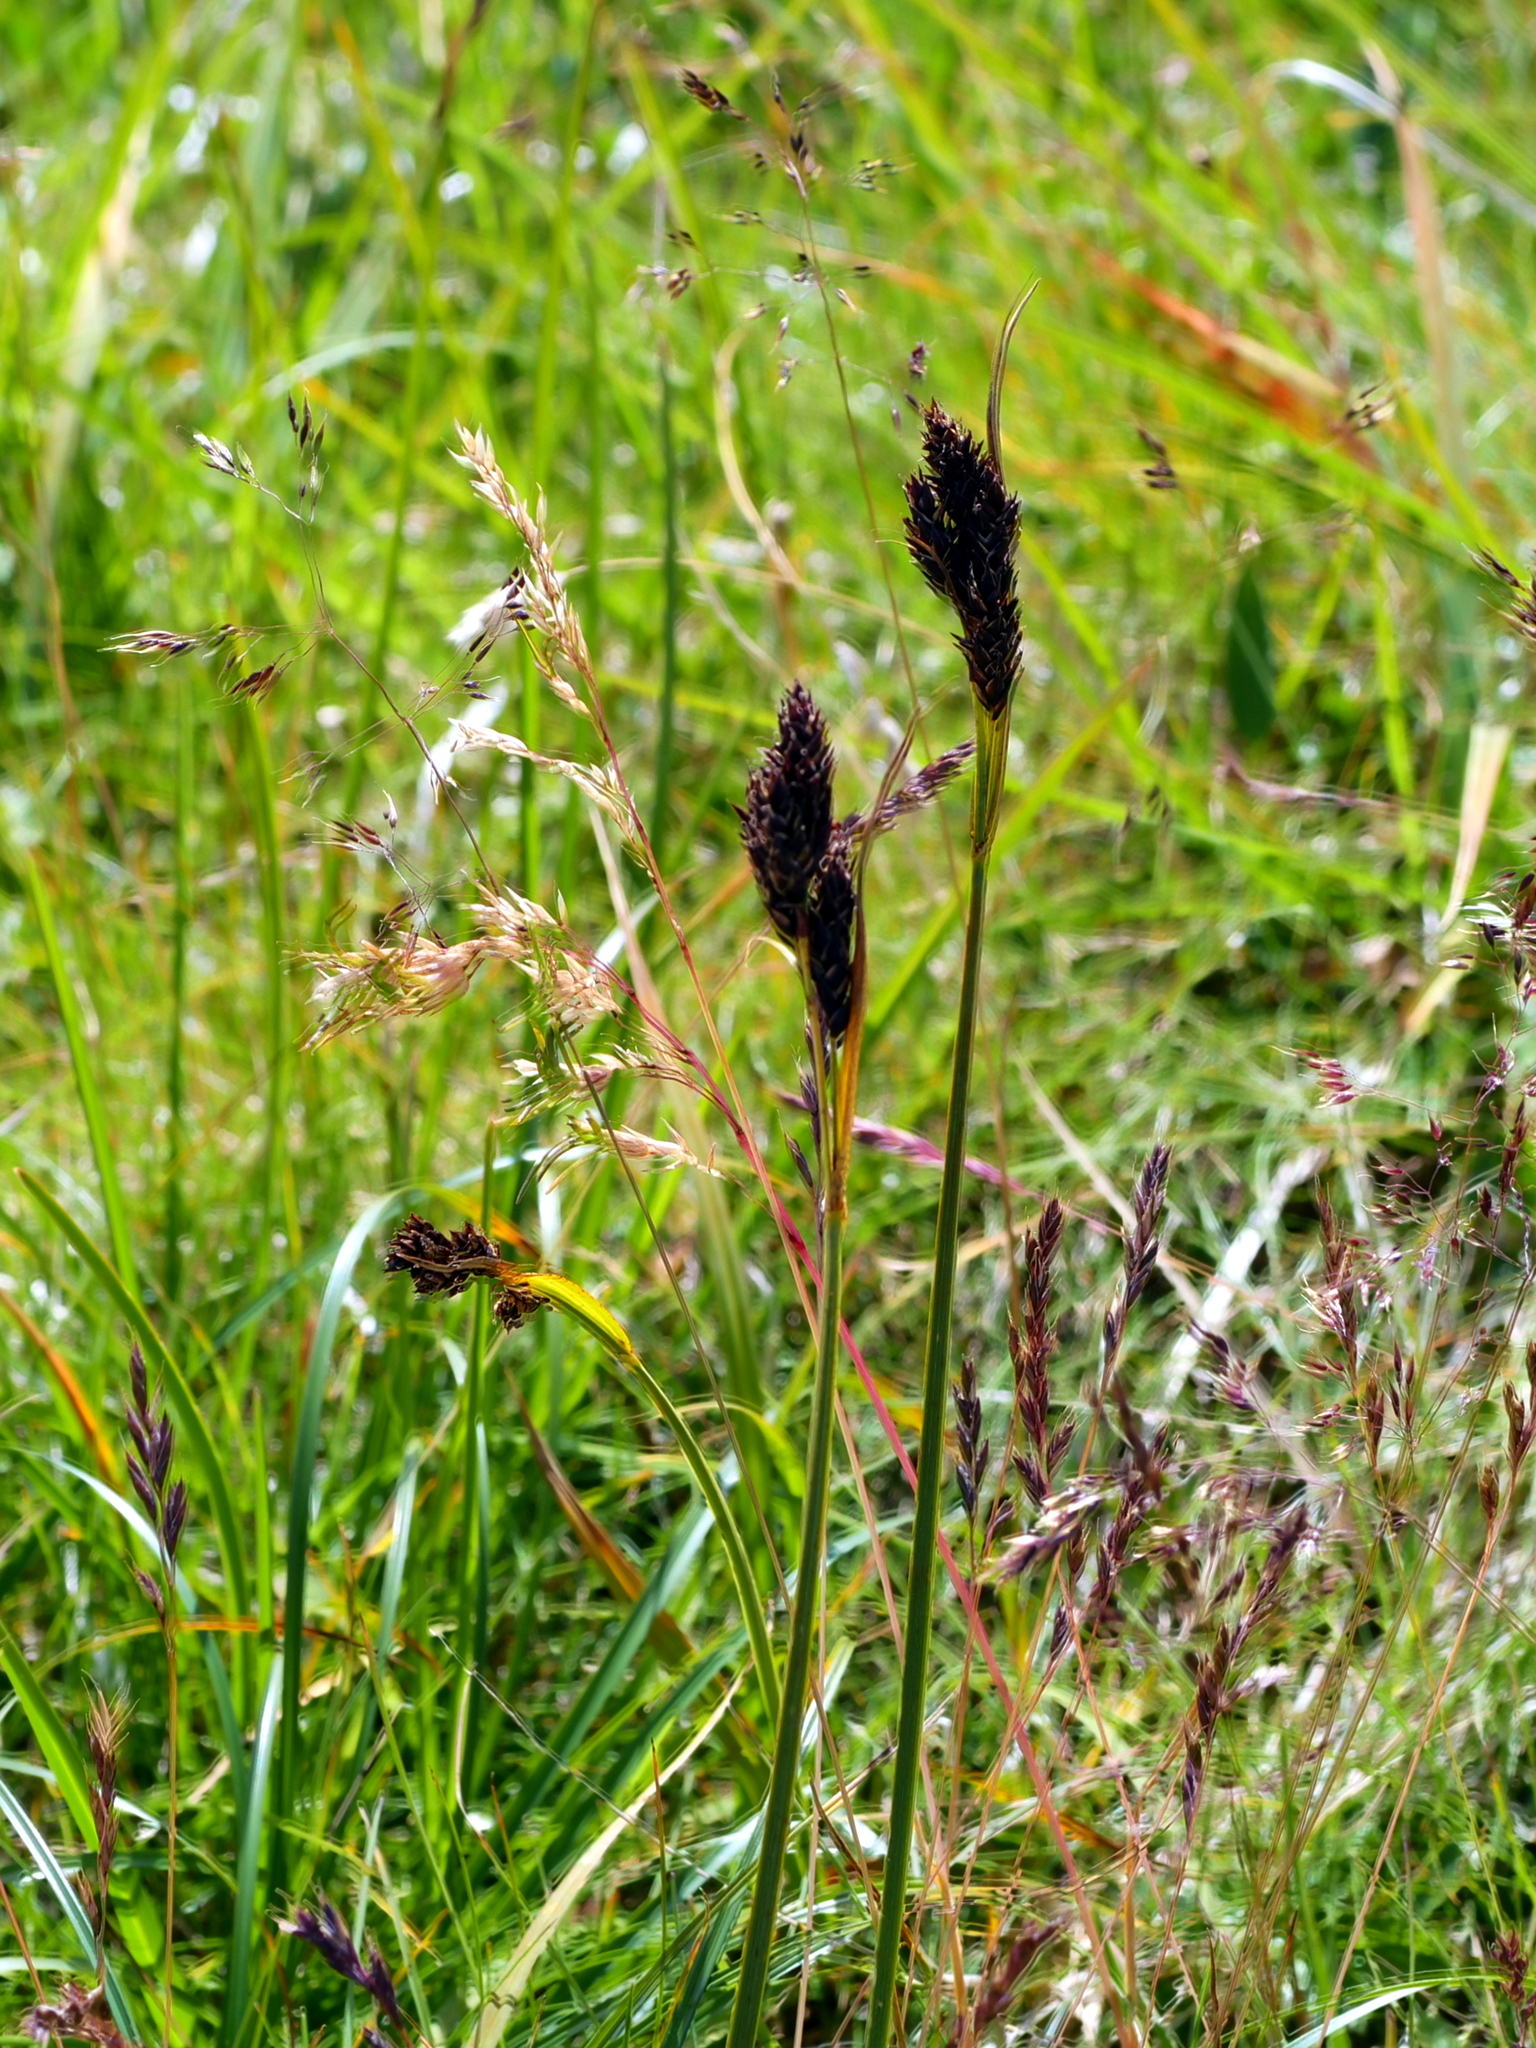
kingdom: Plantae
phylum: Tracheophyta
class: Liliopsida
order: Poales
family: Cyperaceae
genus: Carex
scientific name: Carex atrata
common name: Black alpine sedge
